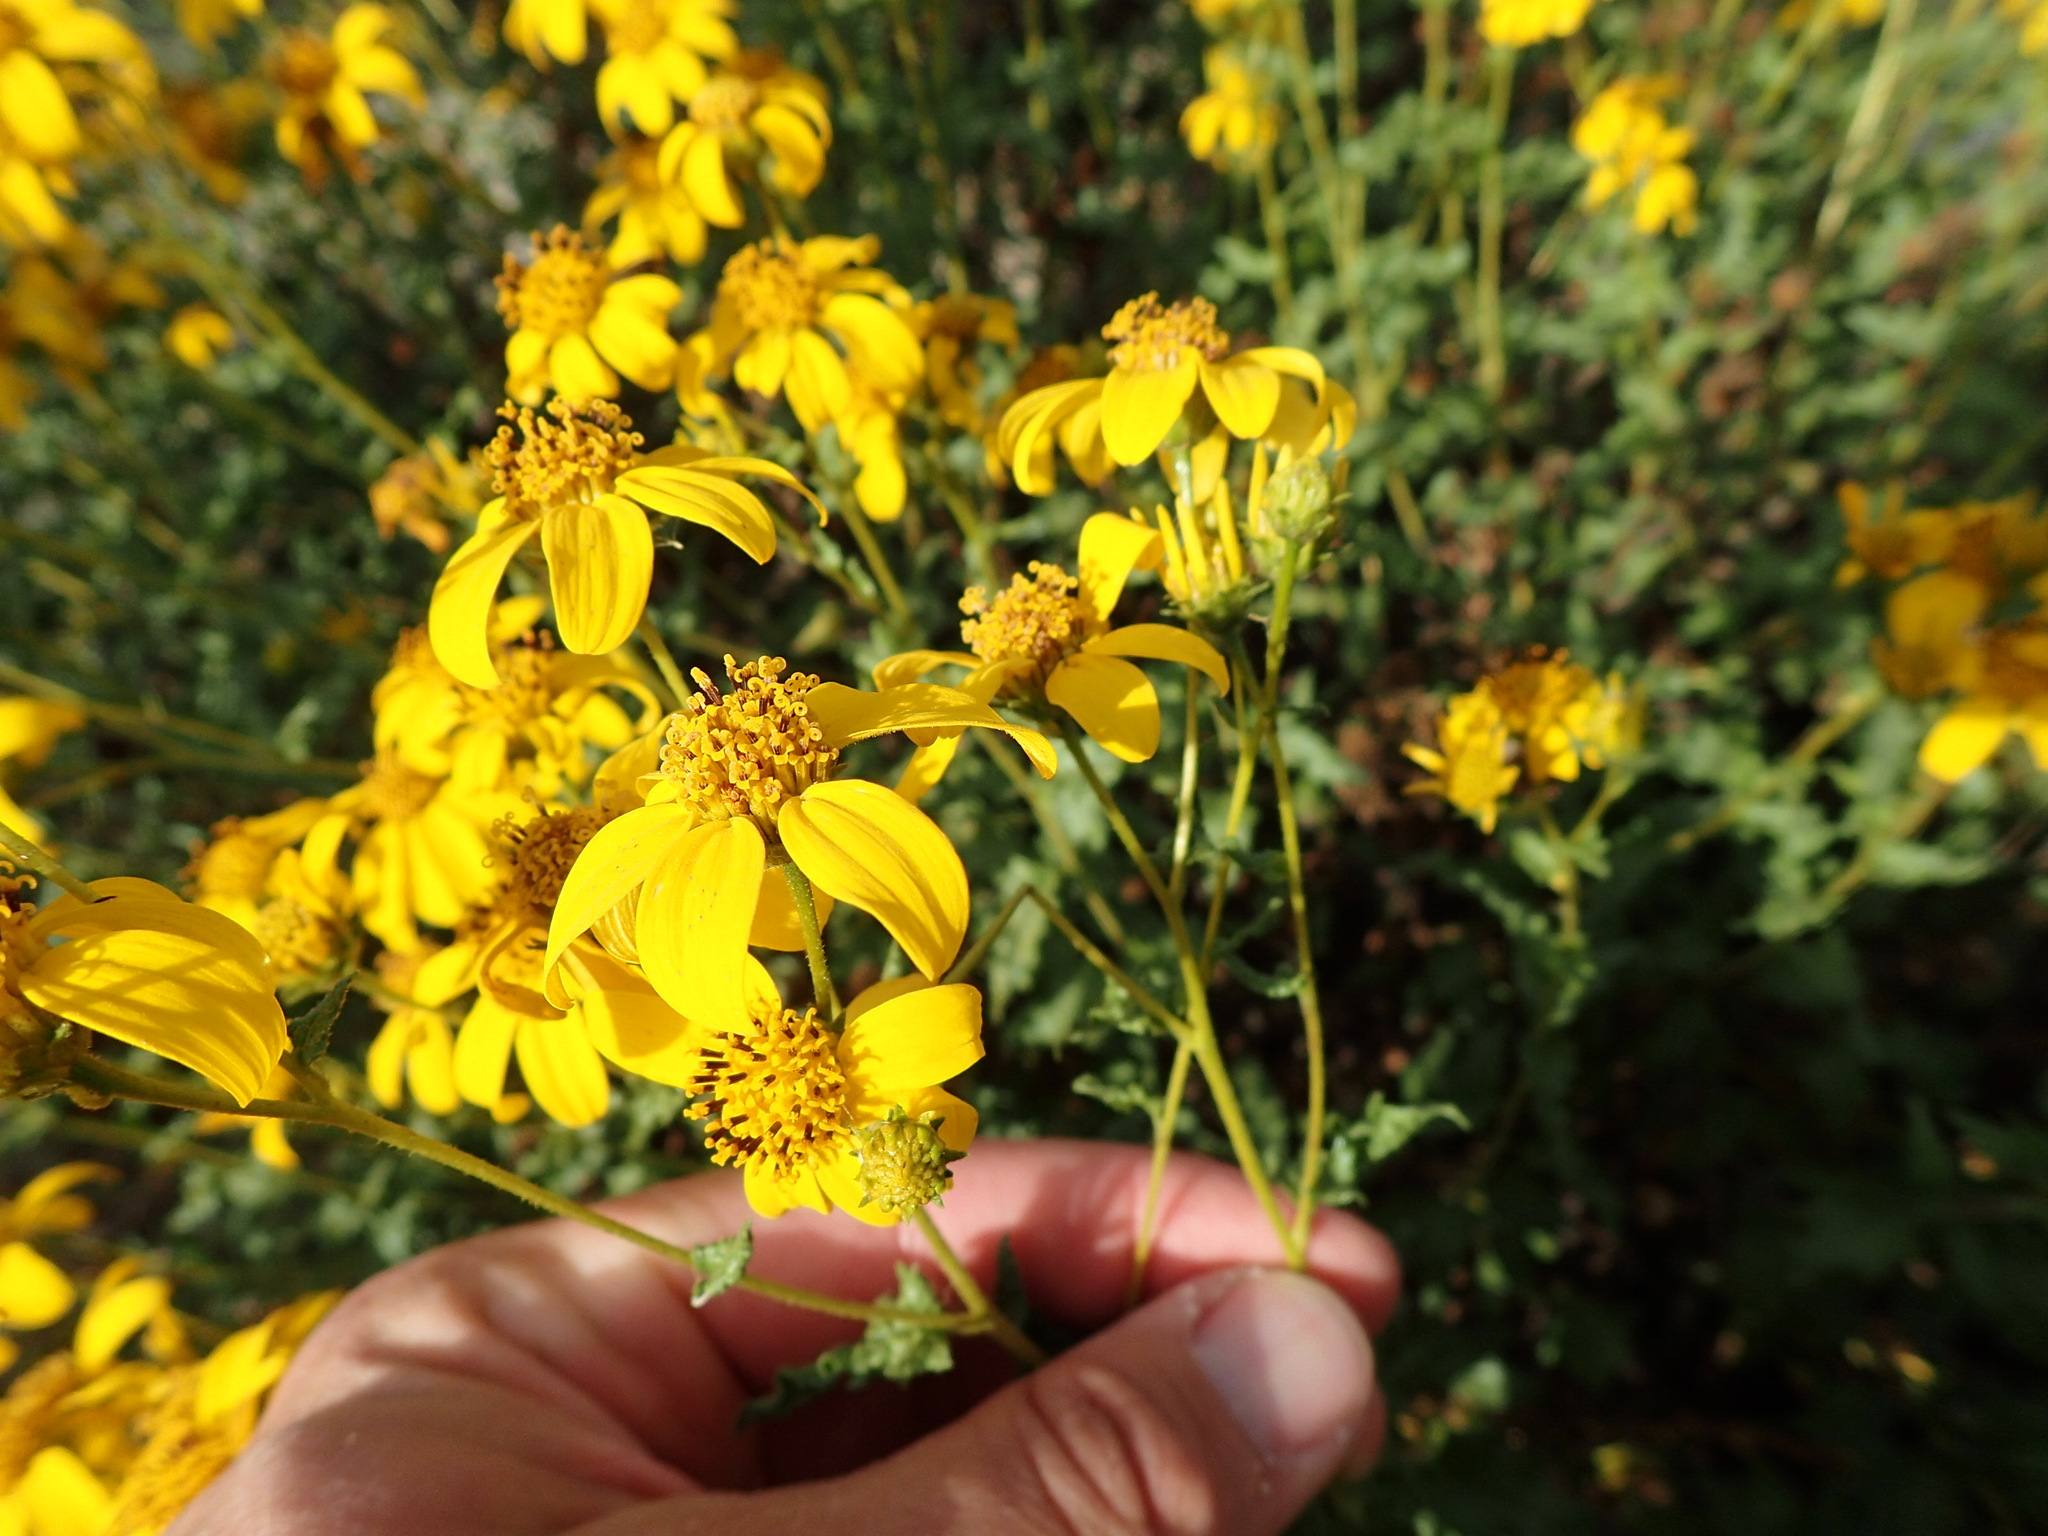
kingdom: Plantae
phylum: Tracheophyta
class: Magnoliopsida
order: Asterales
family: Asteraceae
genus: Bahiopsis
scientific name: Bahiopsis laciniata
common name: San diego county viguiera
